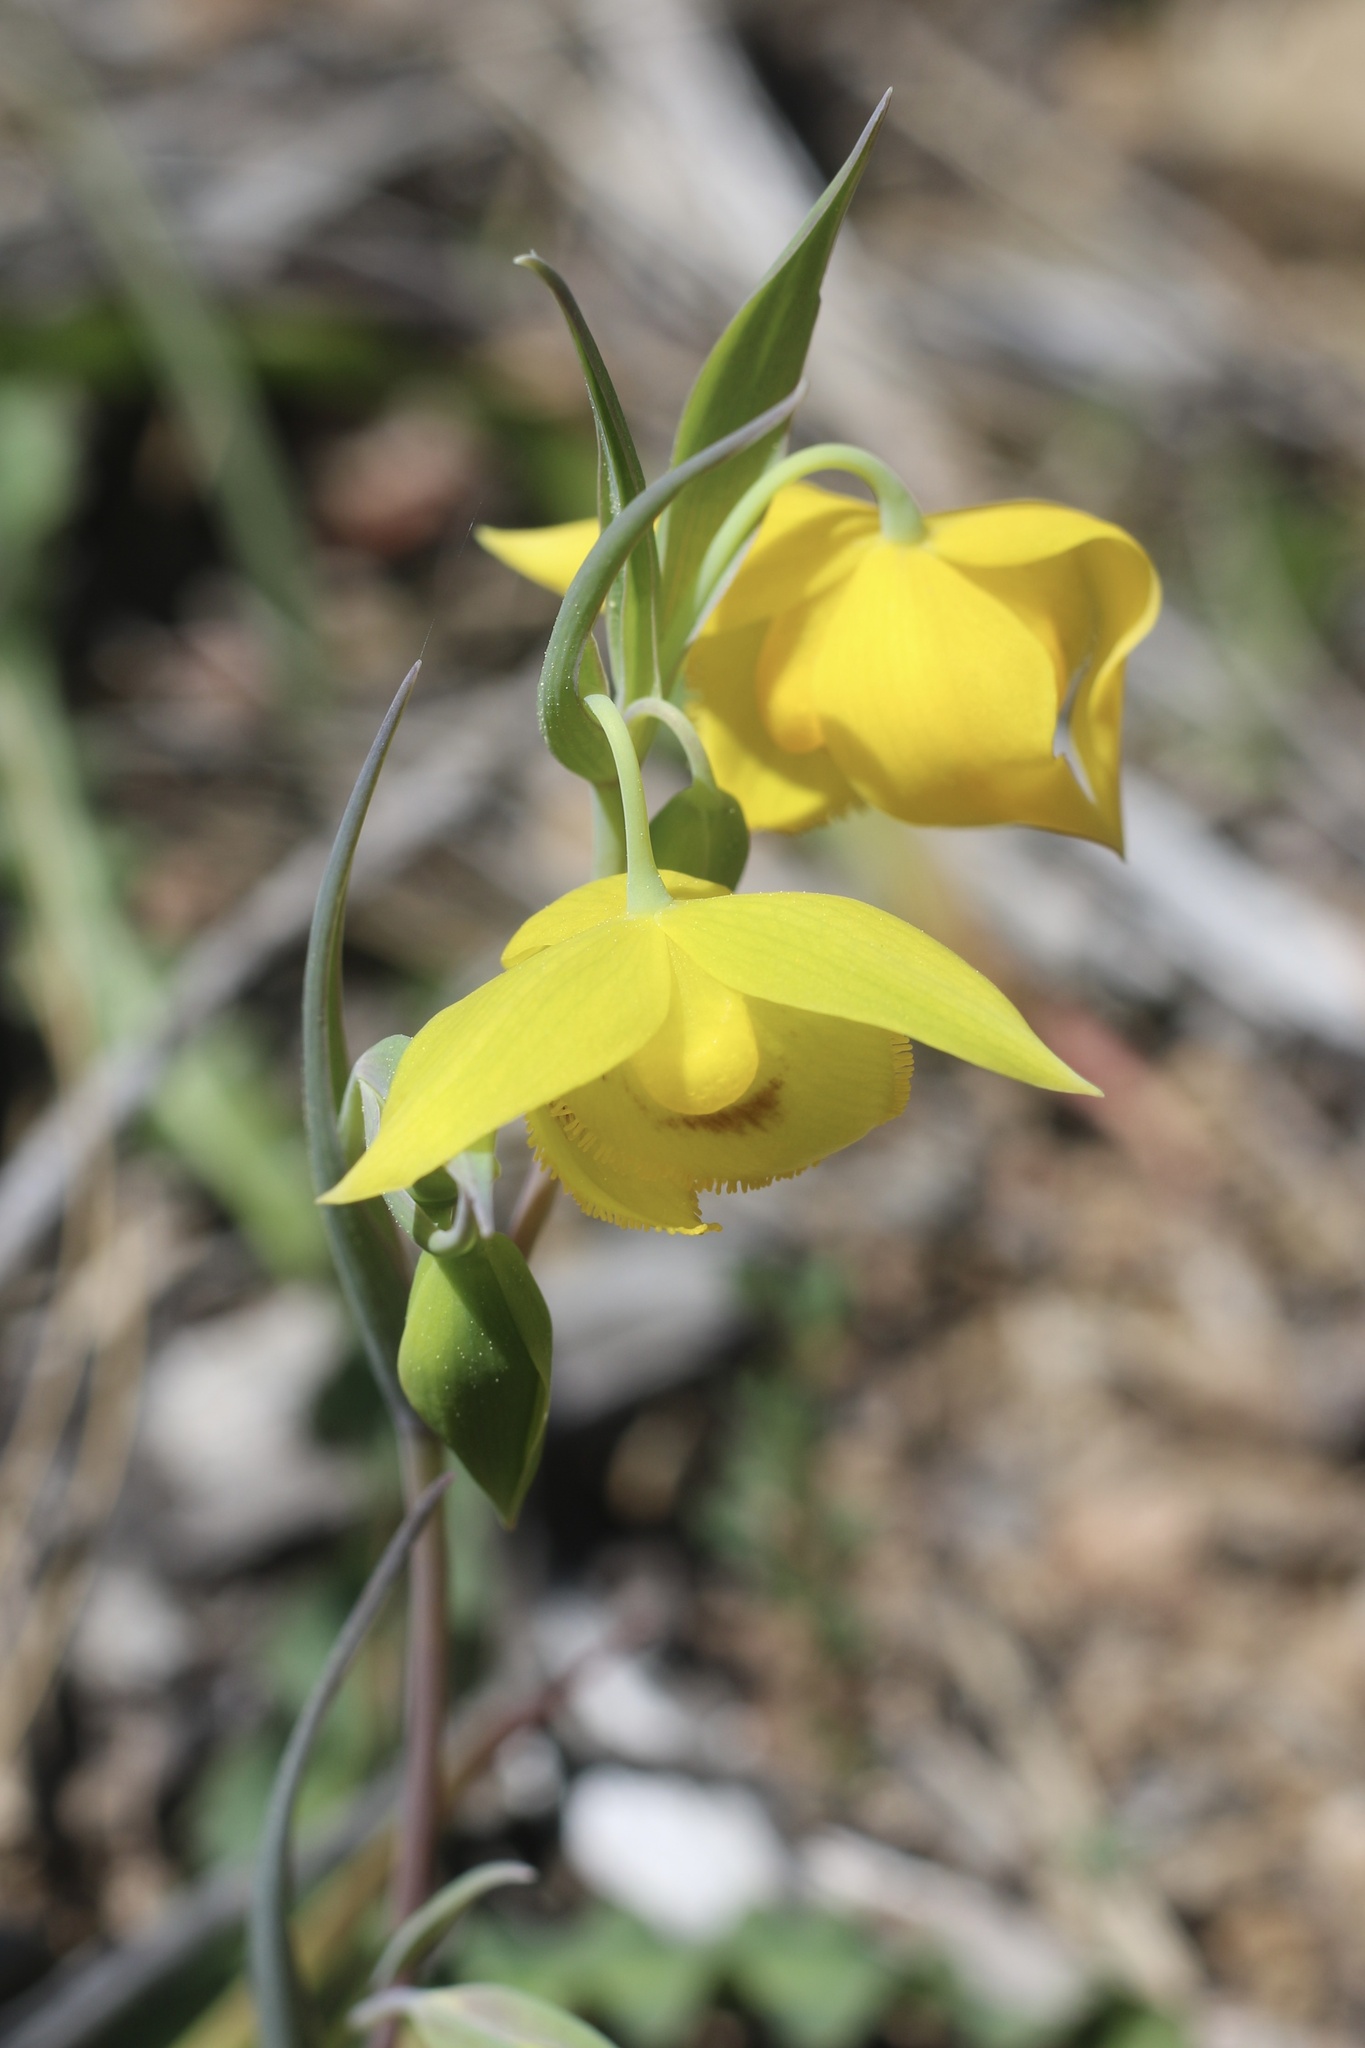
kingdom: Plantae
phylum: Tracheophyta
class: Liliopsida
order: Liliales
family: Liliaceae
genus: Calochortus
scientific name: Calochortus amabilis
